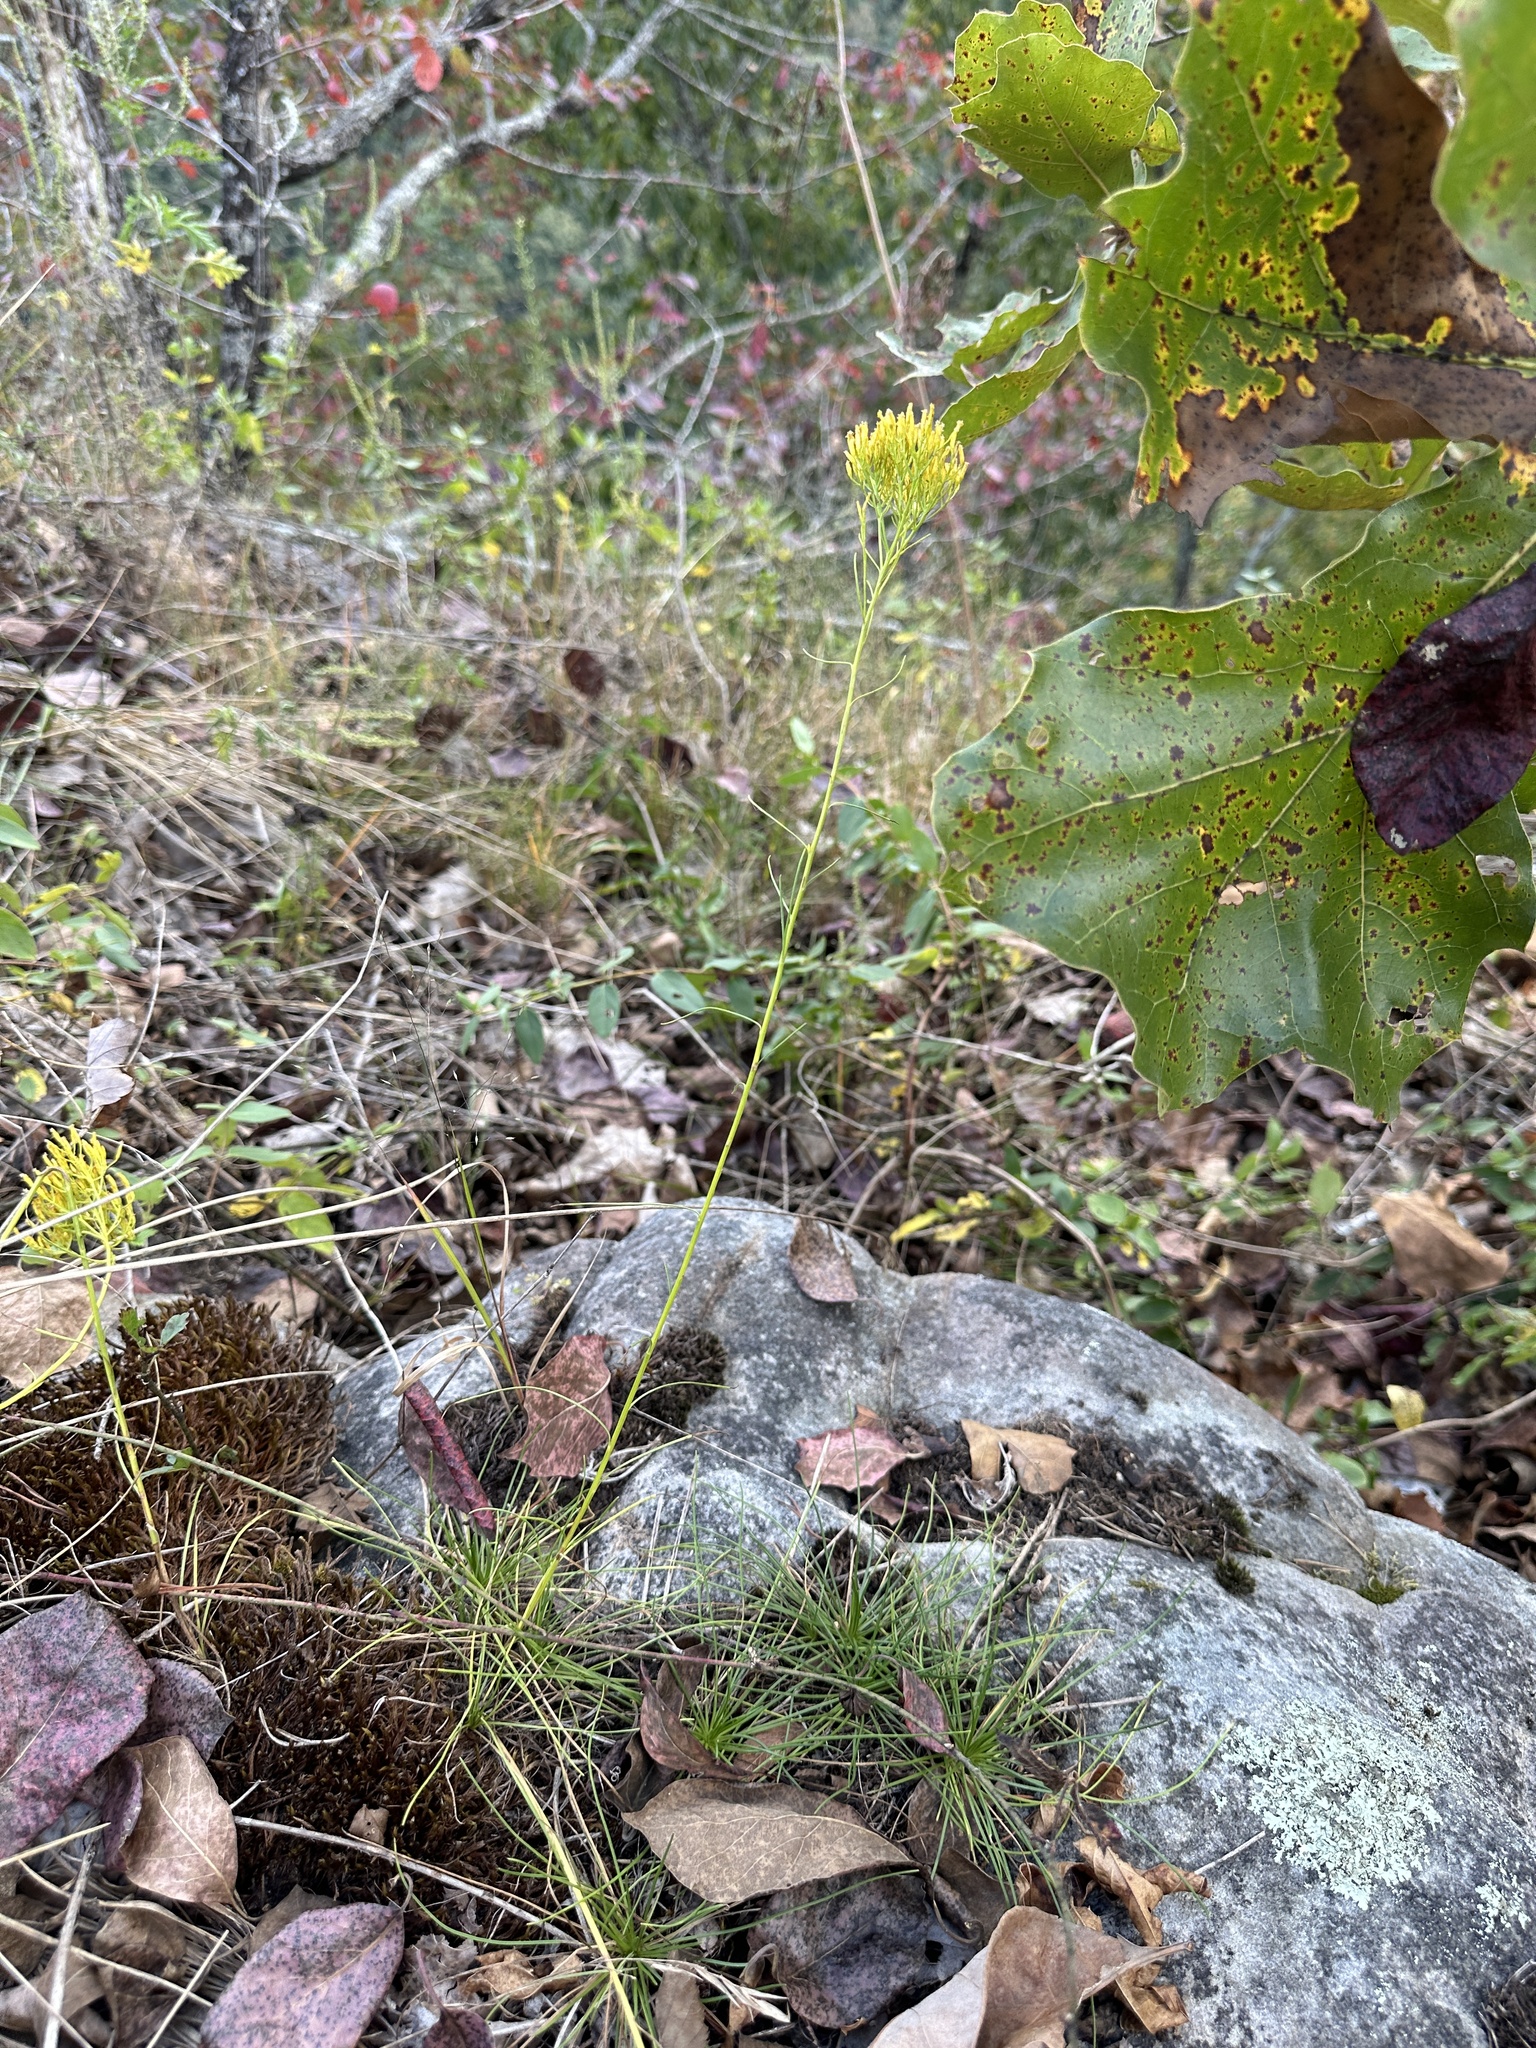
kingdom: Plantae
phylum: Tracheophyta
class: Magnoliopsida
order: Asterales
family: Asteraceae
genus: Bigelowia
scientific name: Bigelowia nuttallii
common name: Nuttall's rayless-goldenrod
